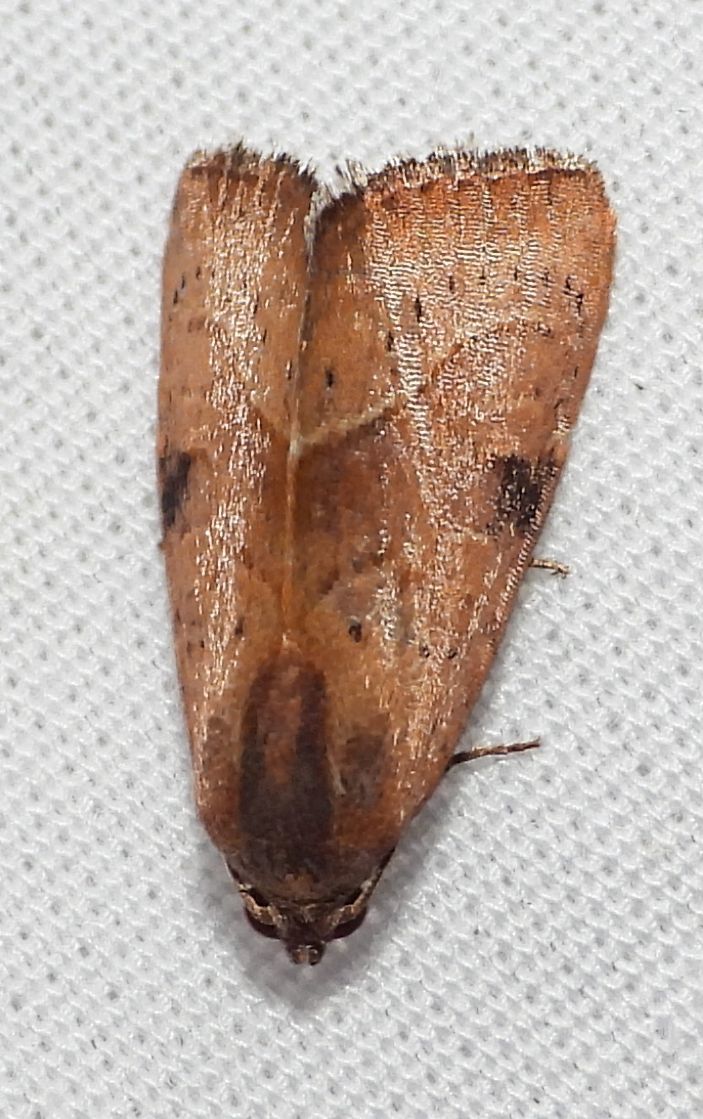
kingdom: Animalia
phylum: Arthropoda
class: Insecta
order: Lepidoptera
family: Noctuidae
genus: Galgula
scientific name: Galgula partita
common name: Wedgeling
